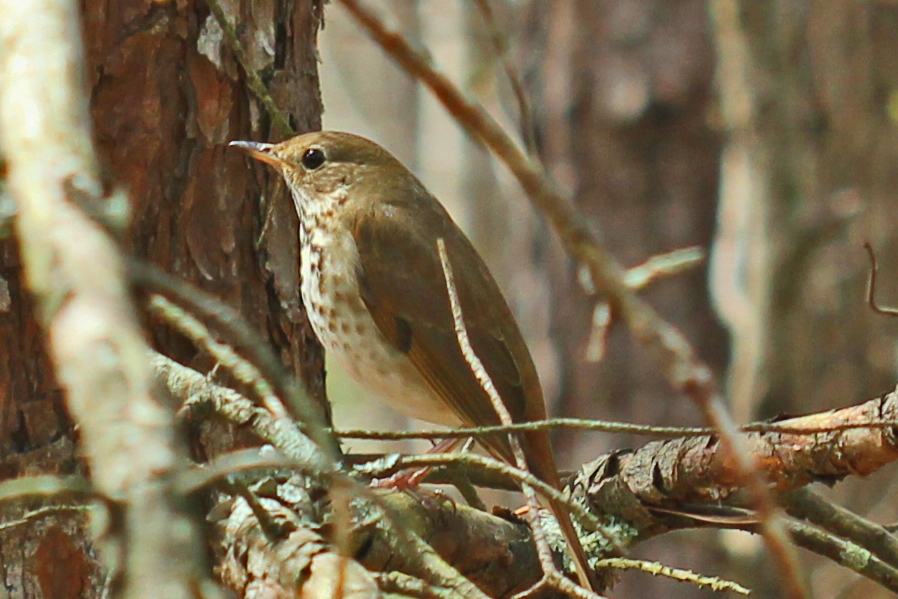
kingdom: Animalia
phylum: Chordata
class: Aves
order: Passeriformes
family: Turdidae
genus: Catharus
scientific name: Catharus guttatus
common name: Hermit thrush
